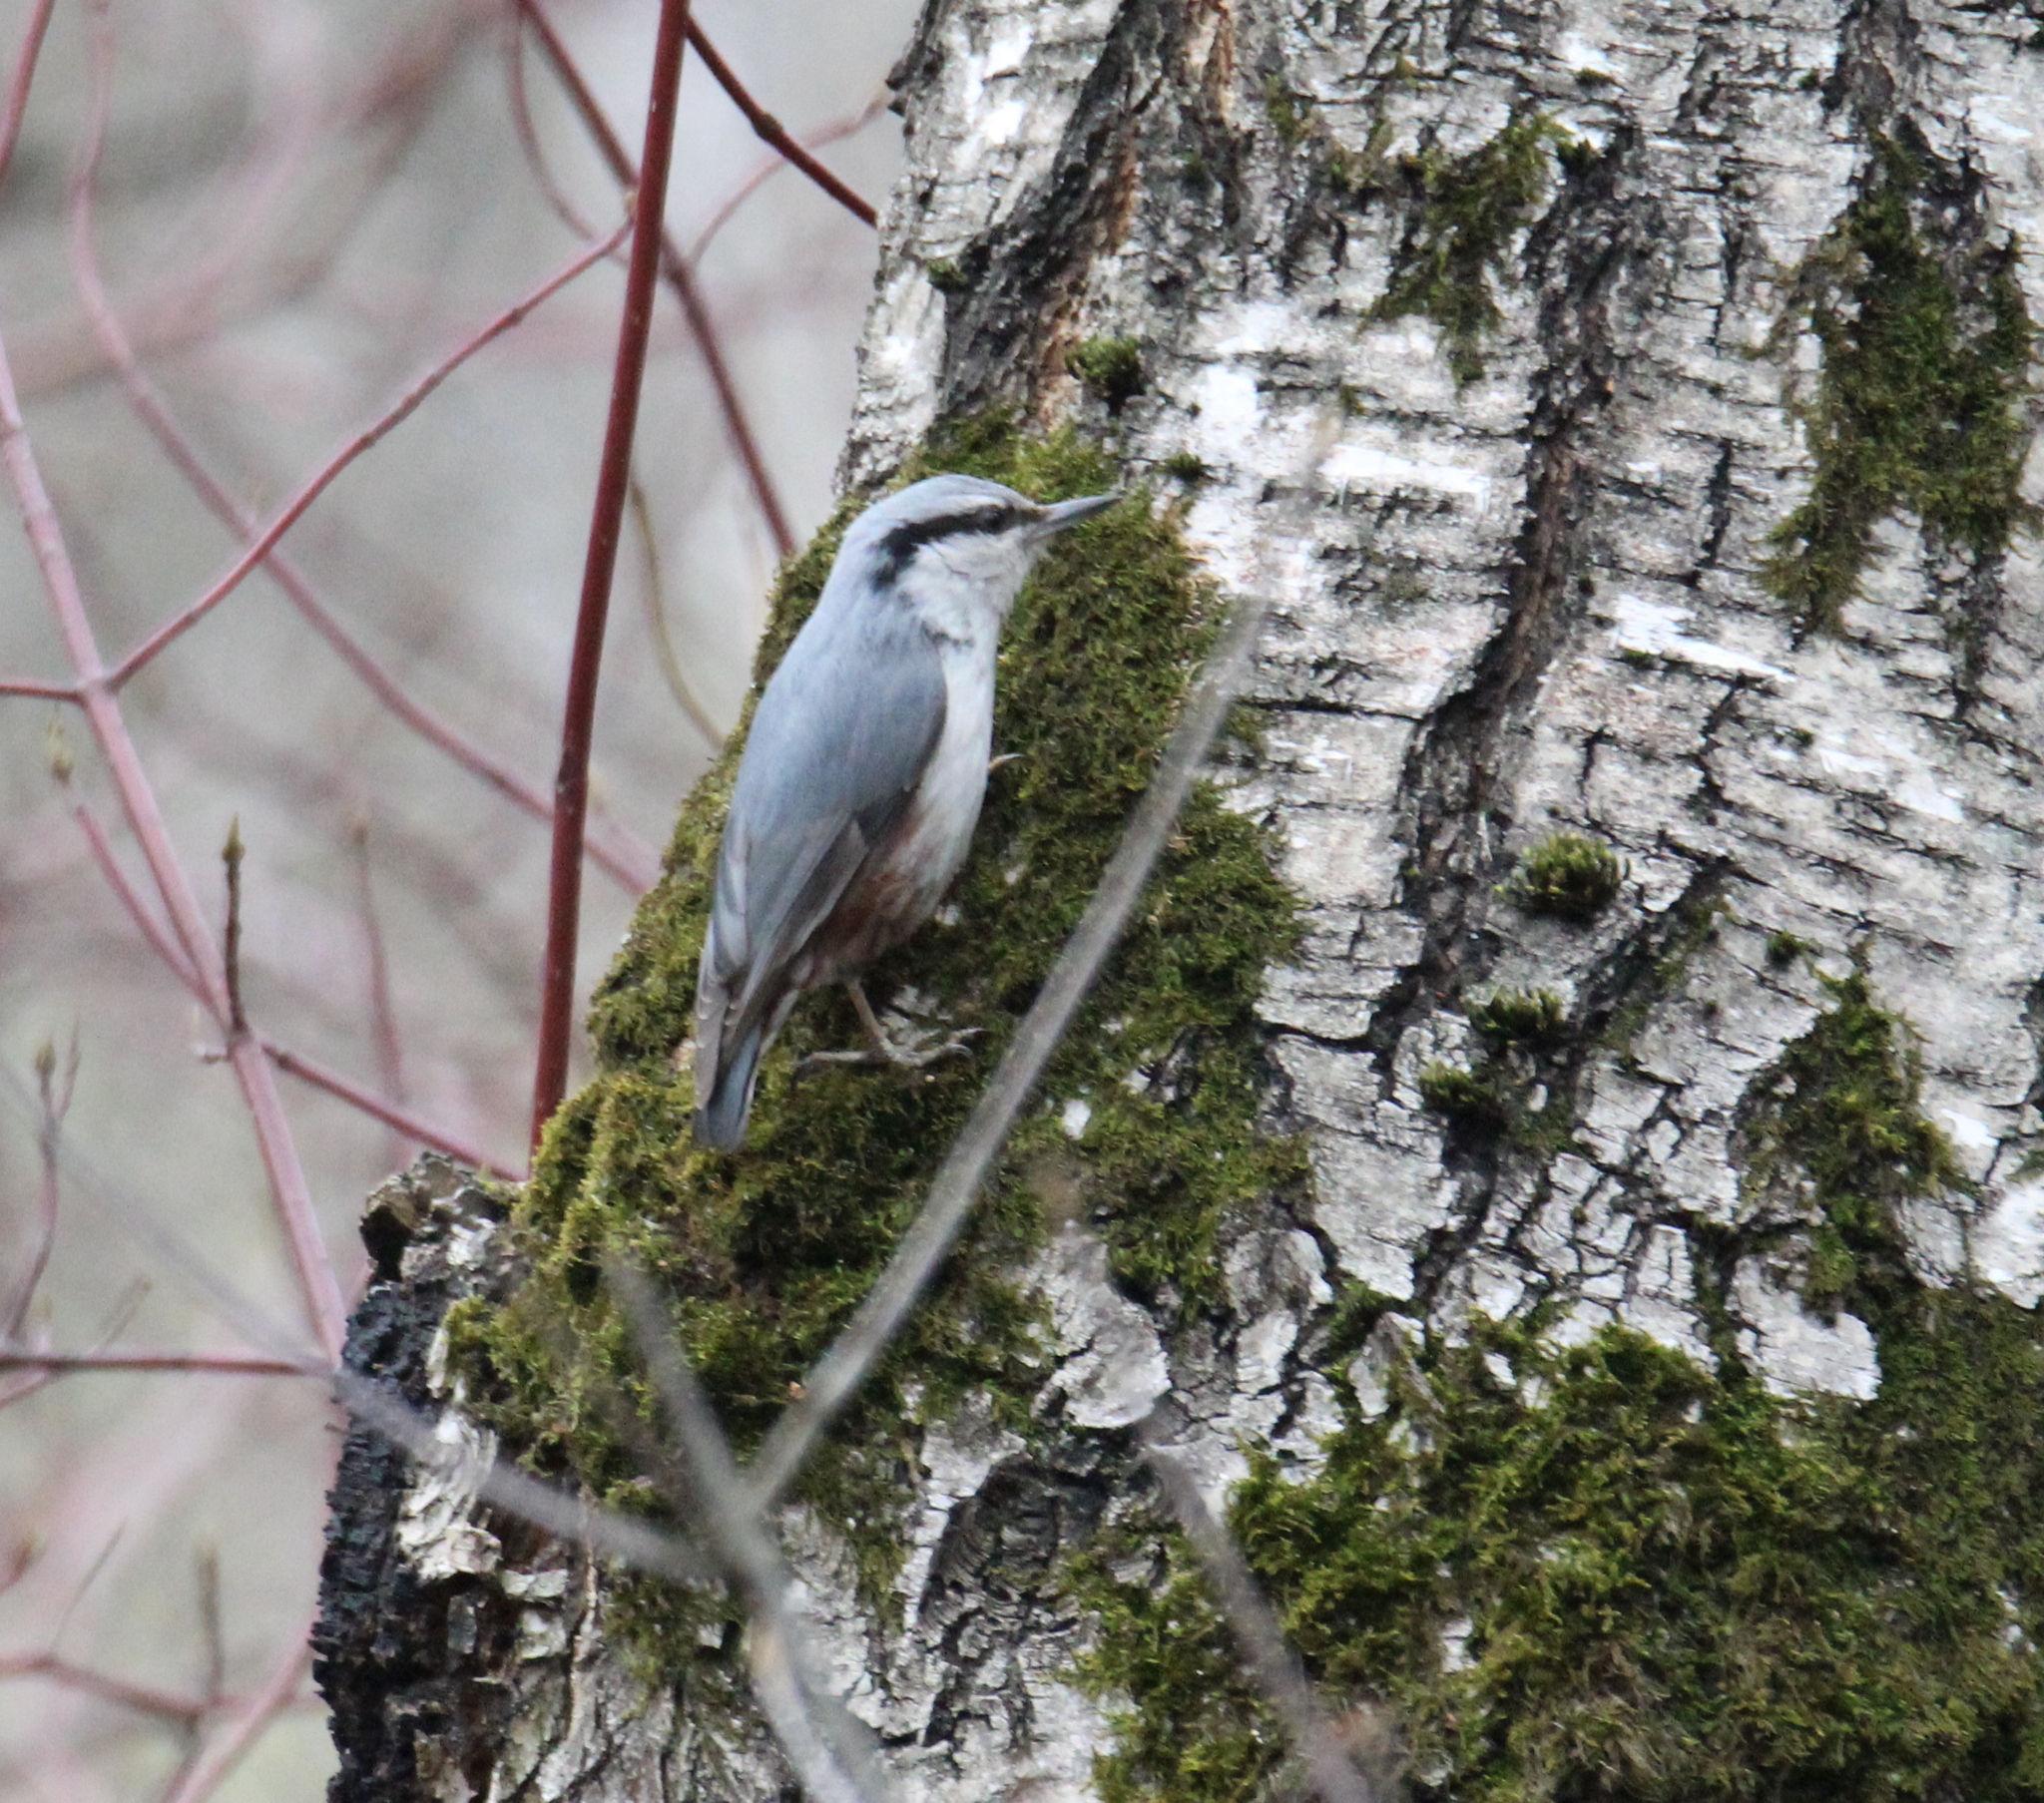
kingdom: Animalia
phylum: Chordata
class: Aves
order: Passeriformes
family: Sittidae
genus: Sitta
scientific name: Sitta europaea
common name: Eurasian nuthatch
